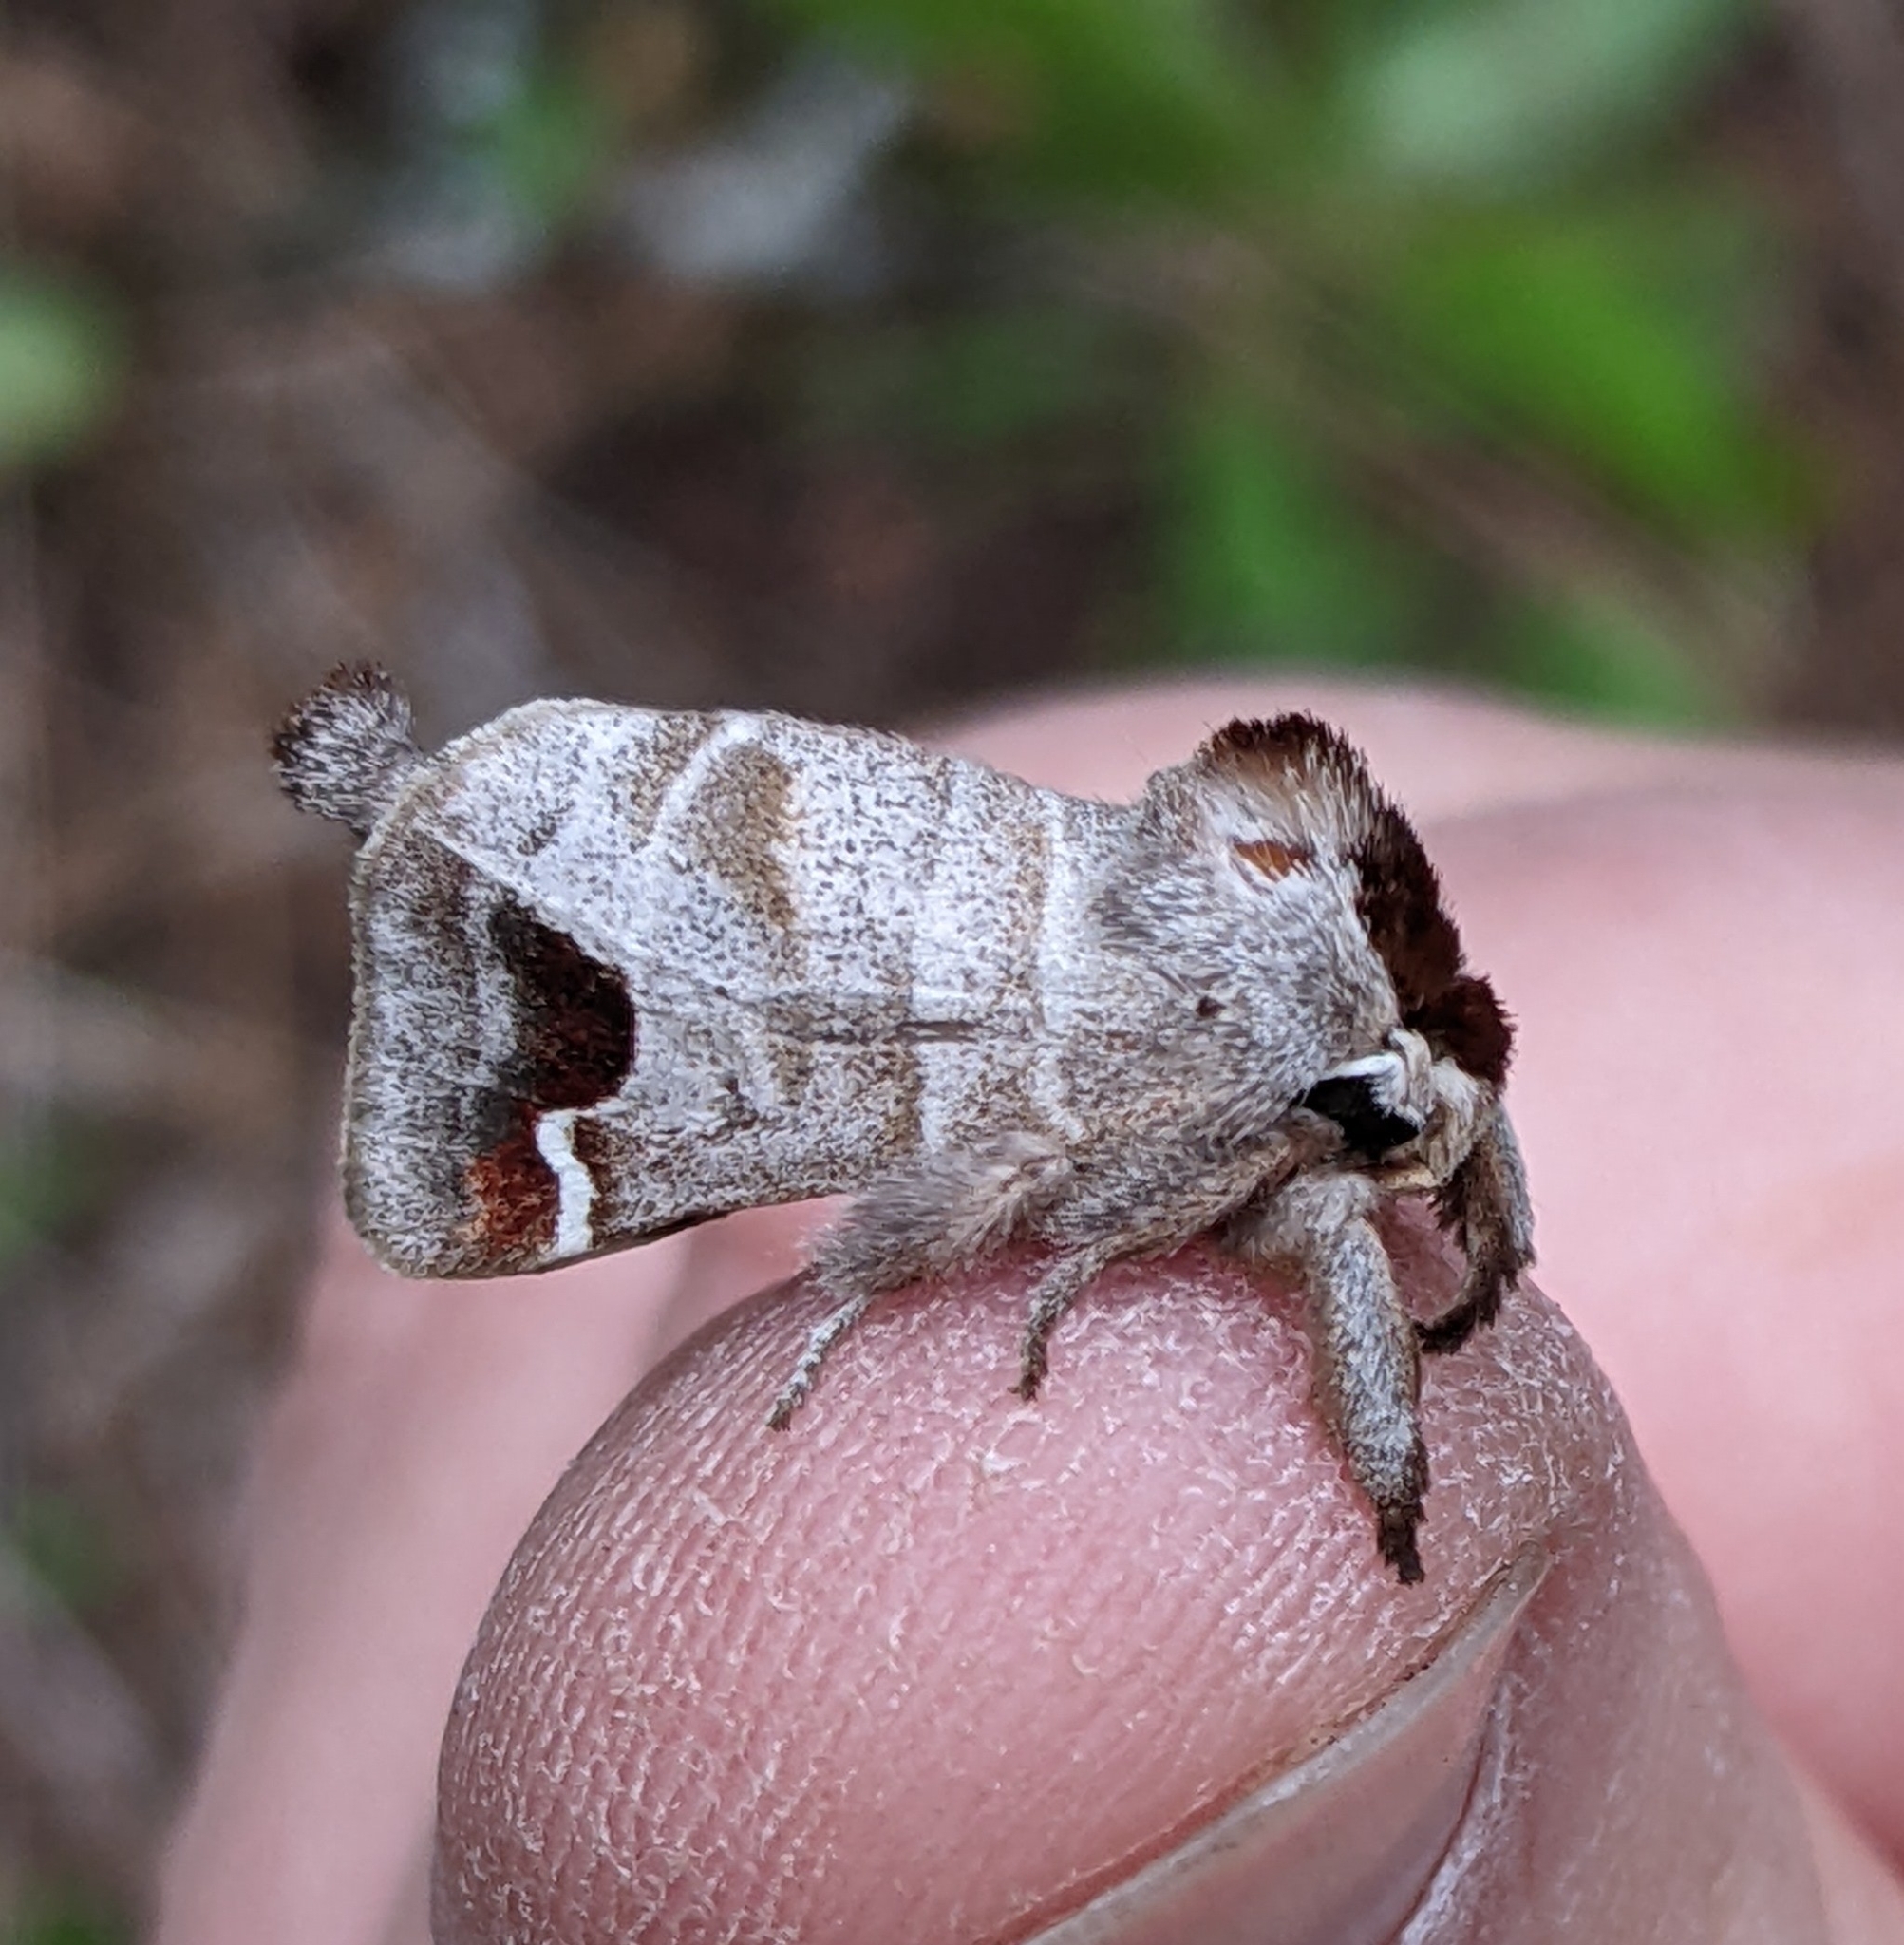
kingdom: Animalia
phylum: Arthropoda
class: Insecta
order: Lepidoptera
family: Notodontidae
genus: Clostera
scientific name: Clostera albosigma
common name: Sigmoid prominent
